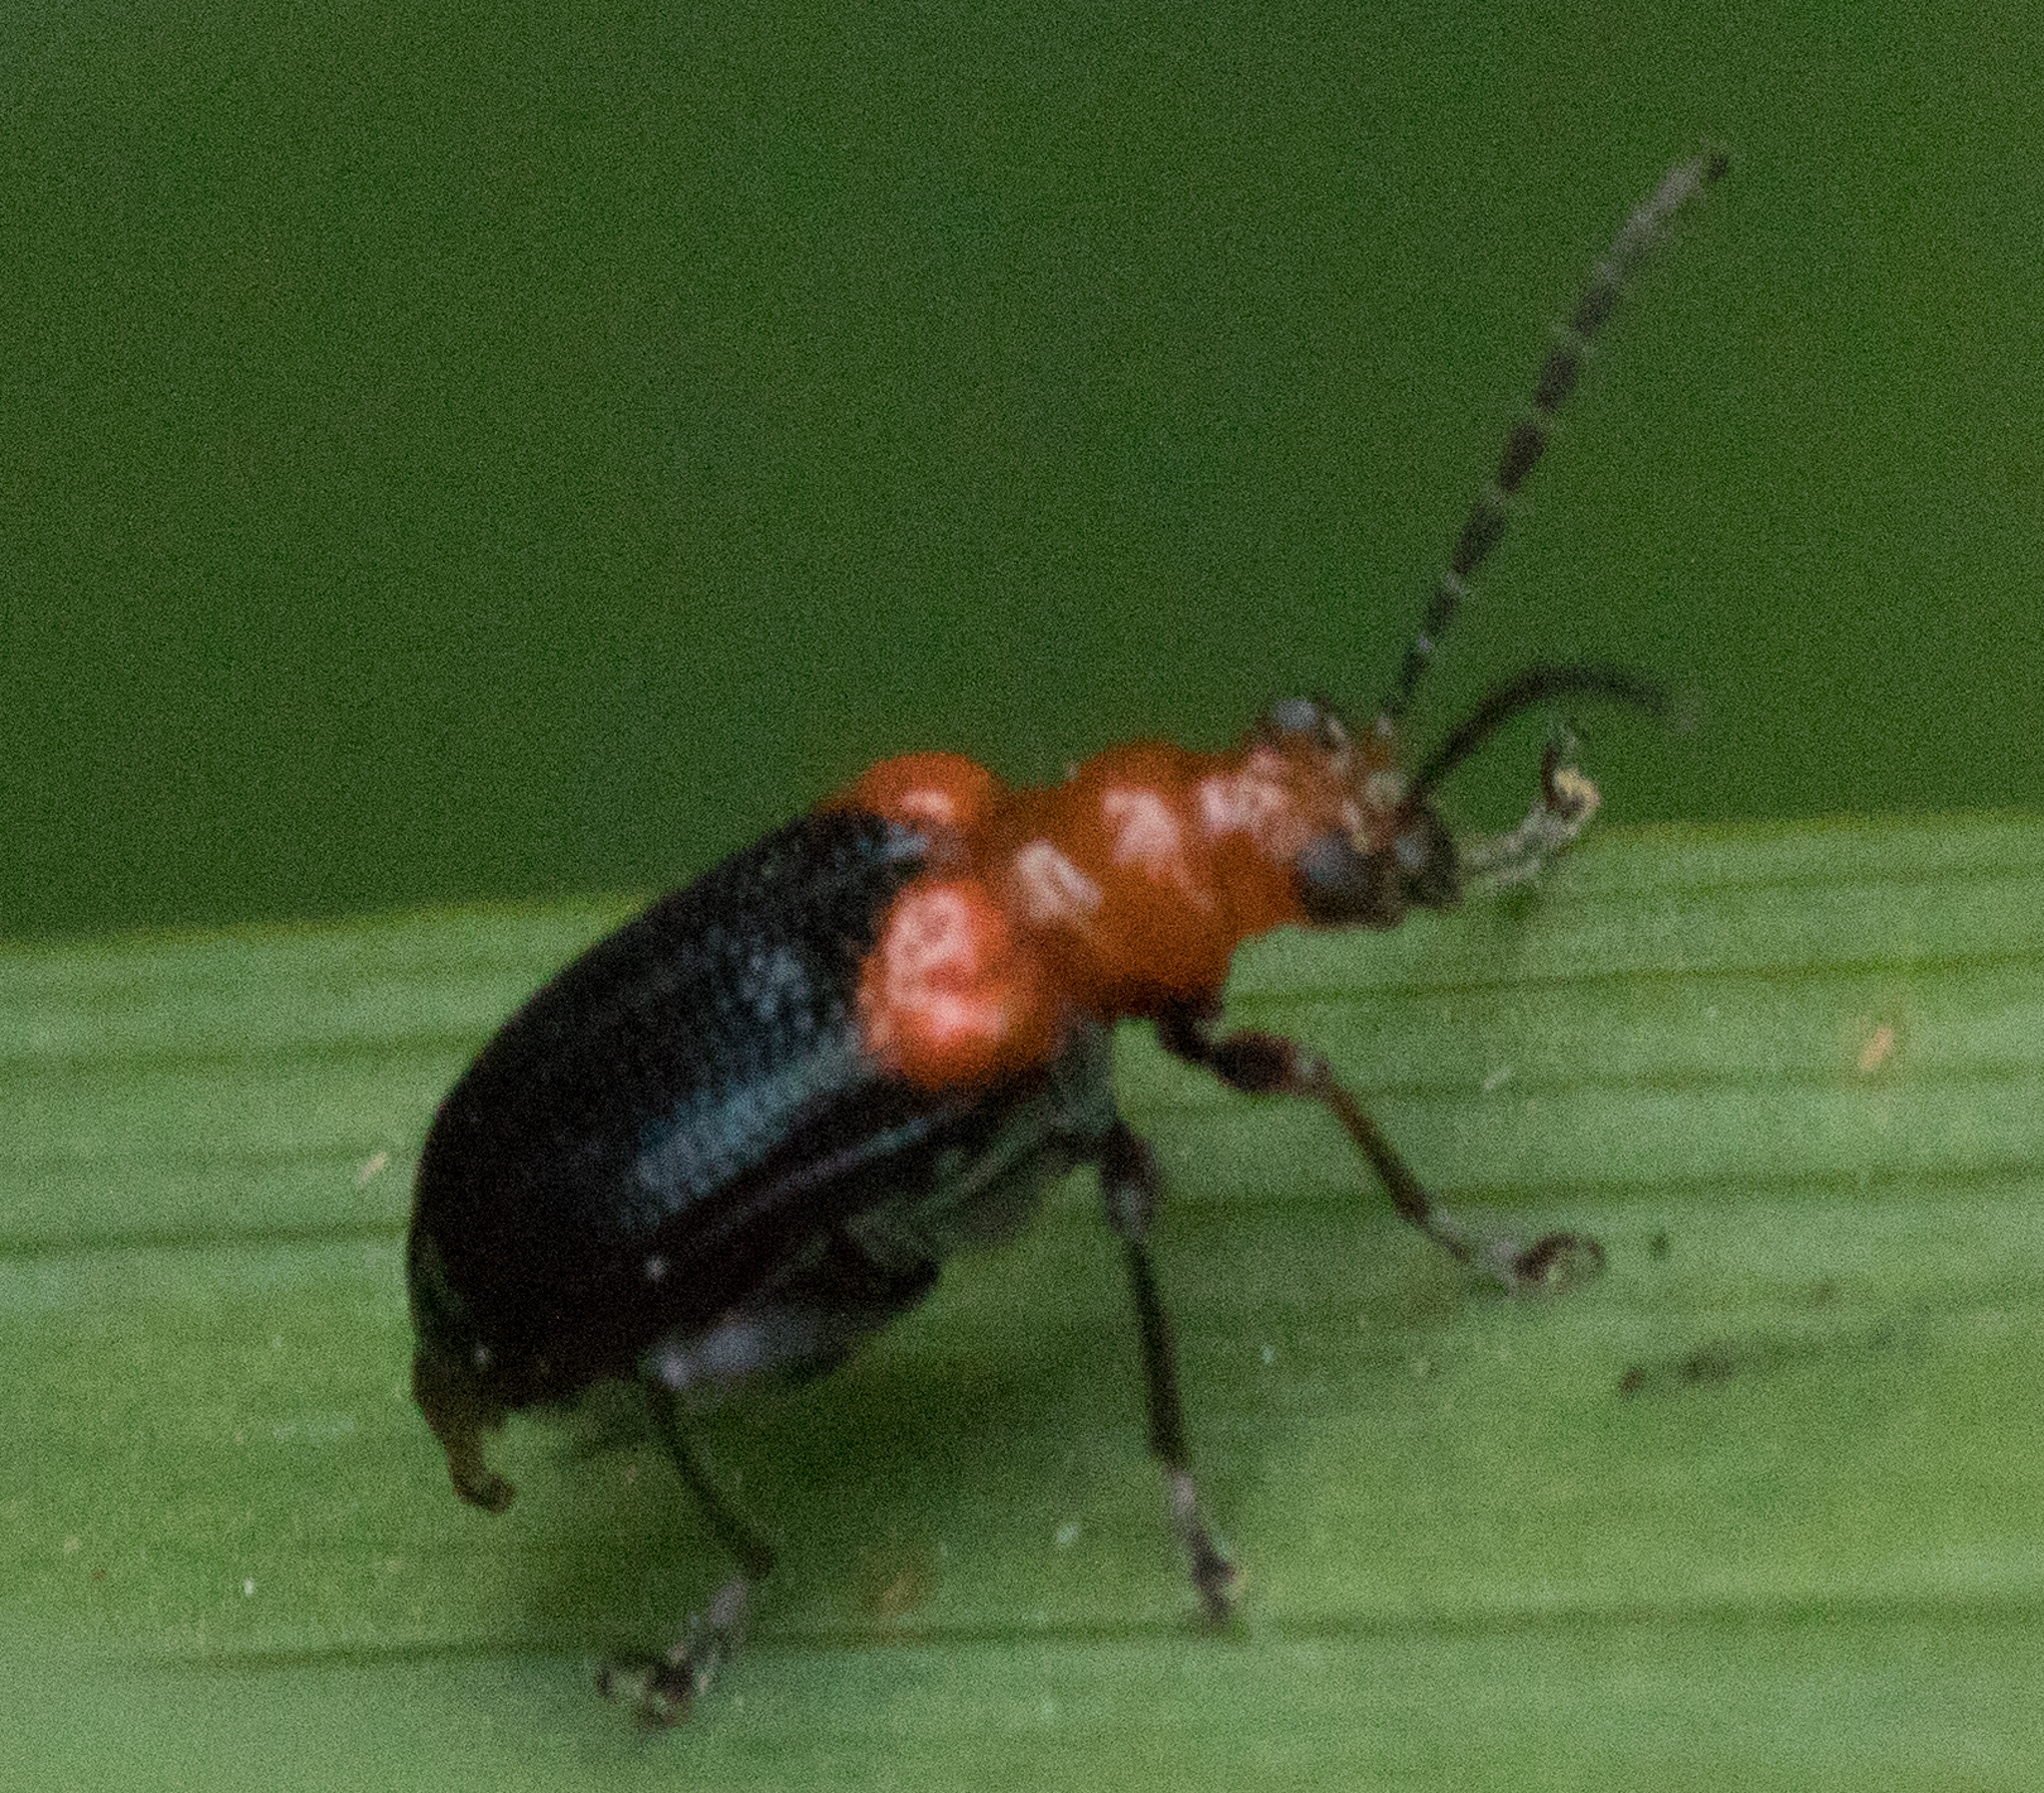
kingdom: Animalia
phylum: Arthropoda
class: Insecta
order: Coleoptera
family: Chrysomelidae
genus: Neolema
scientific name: Neolema
